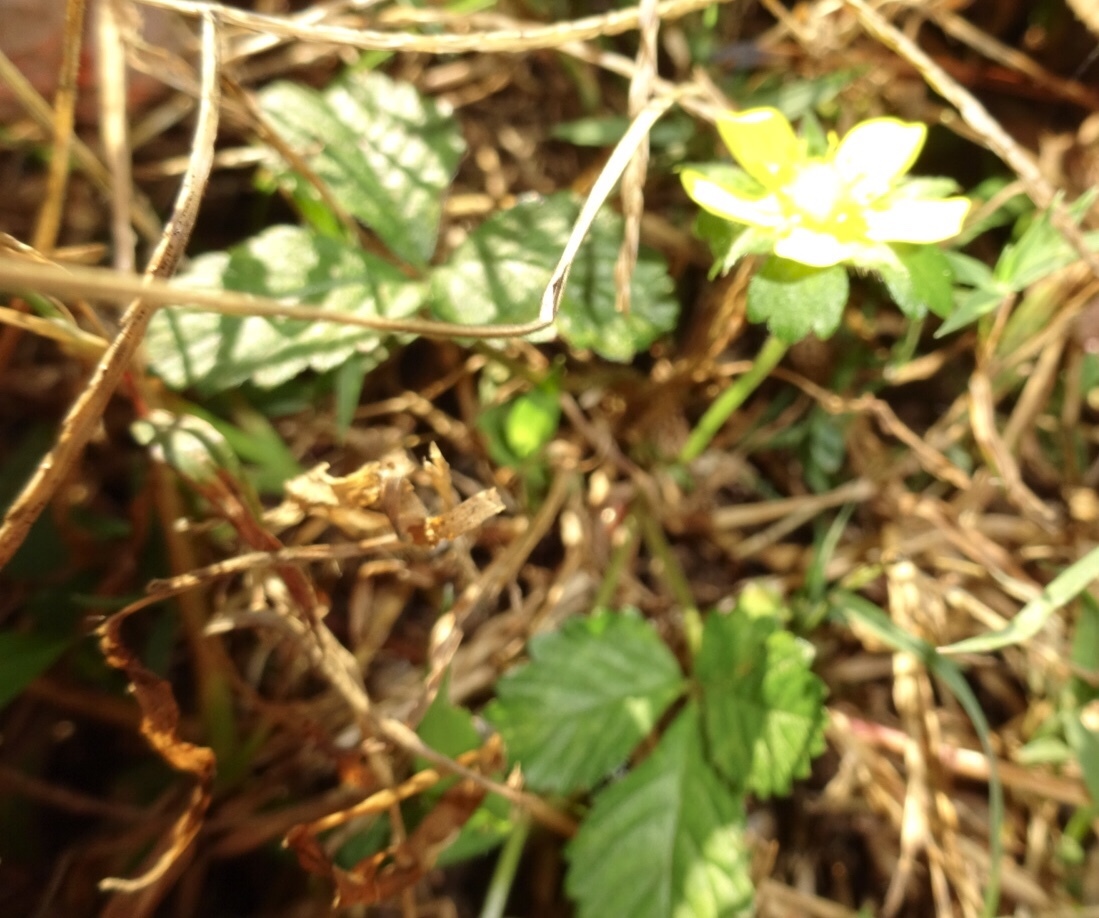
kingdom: Plantae
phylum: Tracheophyta
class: Magnoliopsida
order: Rosales
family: Rosaceae
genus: Potentilla
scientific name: Potentilla indica
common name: Yellow-flowered strawberry
